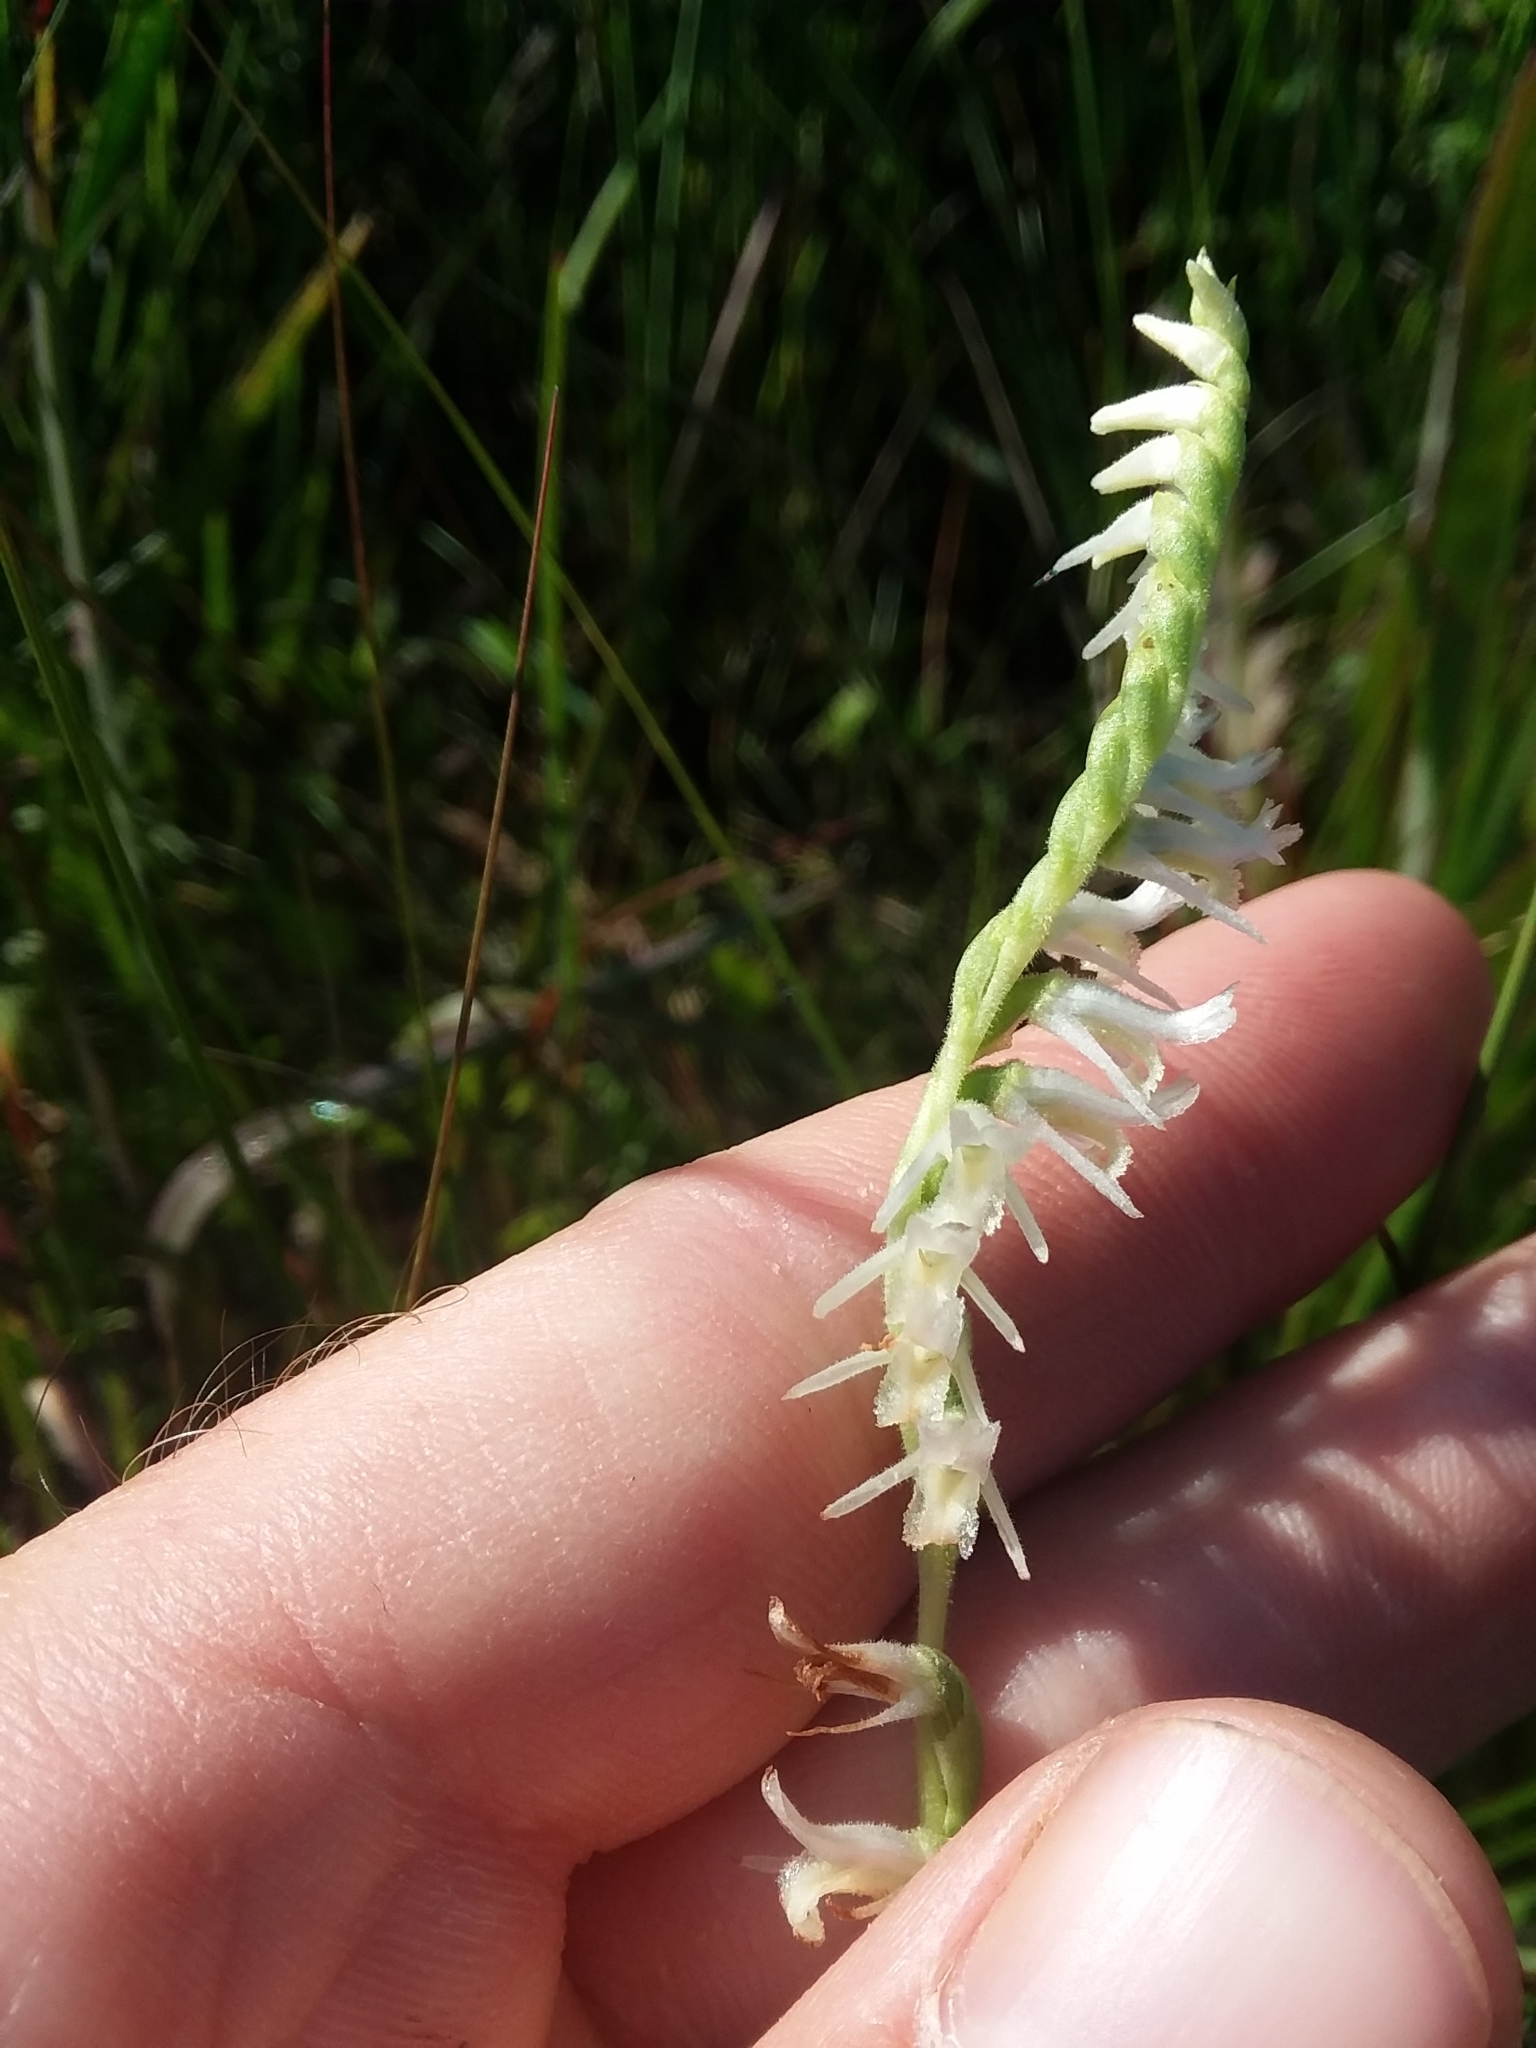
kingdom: Plantae
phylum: Tracheophyta
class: Liliopsida
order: Asparagales
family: Orchidaceae
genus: Spiranthes
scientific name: Spiranthes vernalis
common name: Spring ladies'-tresses
